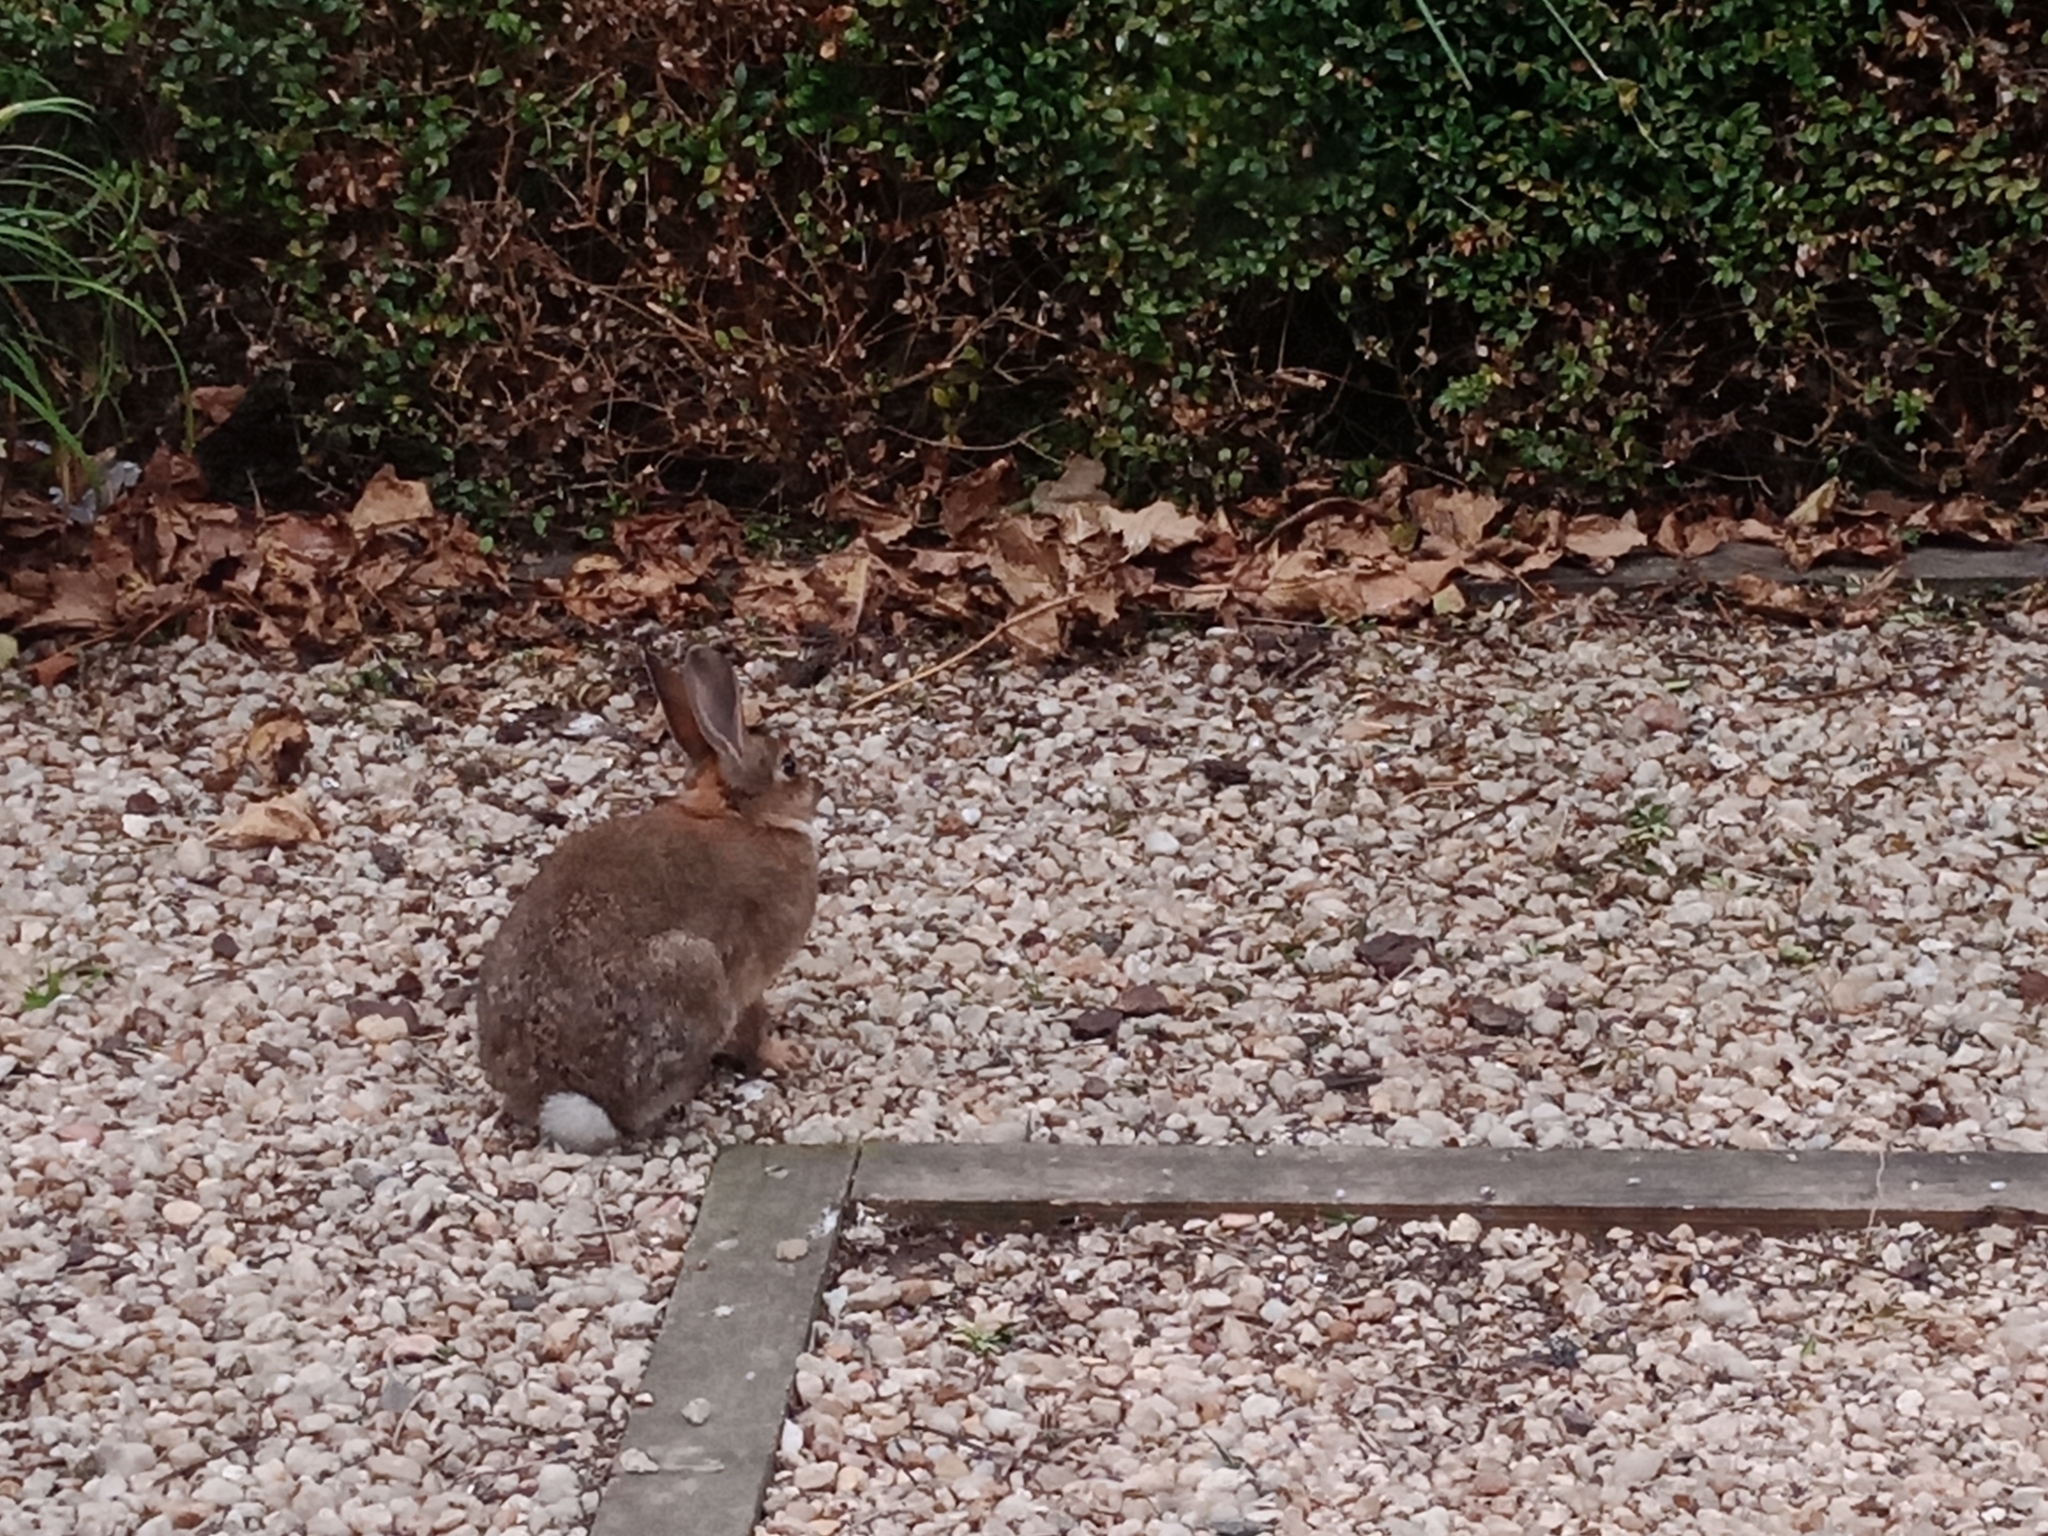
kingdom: Animalia
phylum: Chordata
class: Mammalia
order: Lagomorpha
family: Leporidae
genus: Oryctolagus
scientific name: Oryctolagus cuniculus
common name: European rabbit
